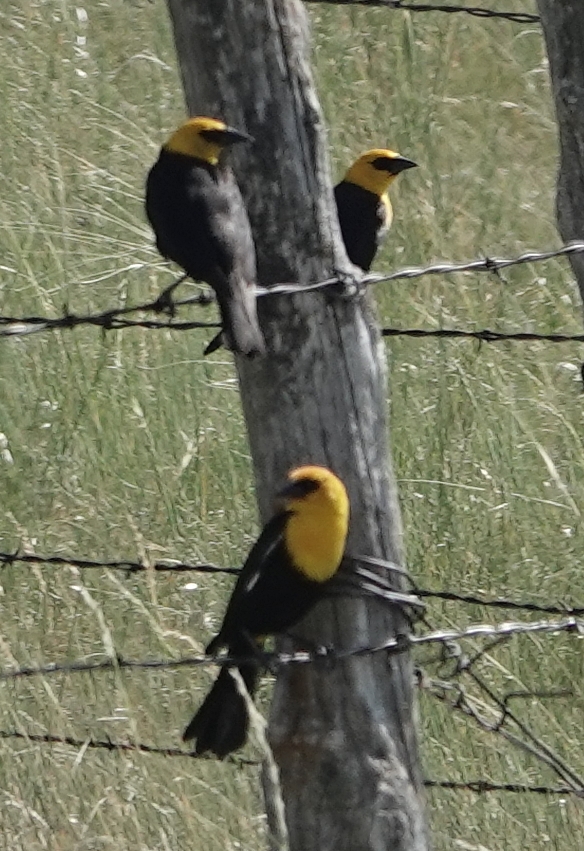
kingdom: Animalia
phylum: Chordata
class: Aves
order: Passeriformes
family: Icteridae
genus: Xanthocephalus
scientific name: Xanthocephalus xanthocephalus
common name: Yellow-headed blackbird
